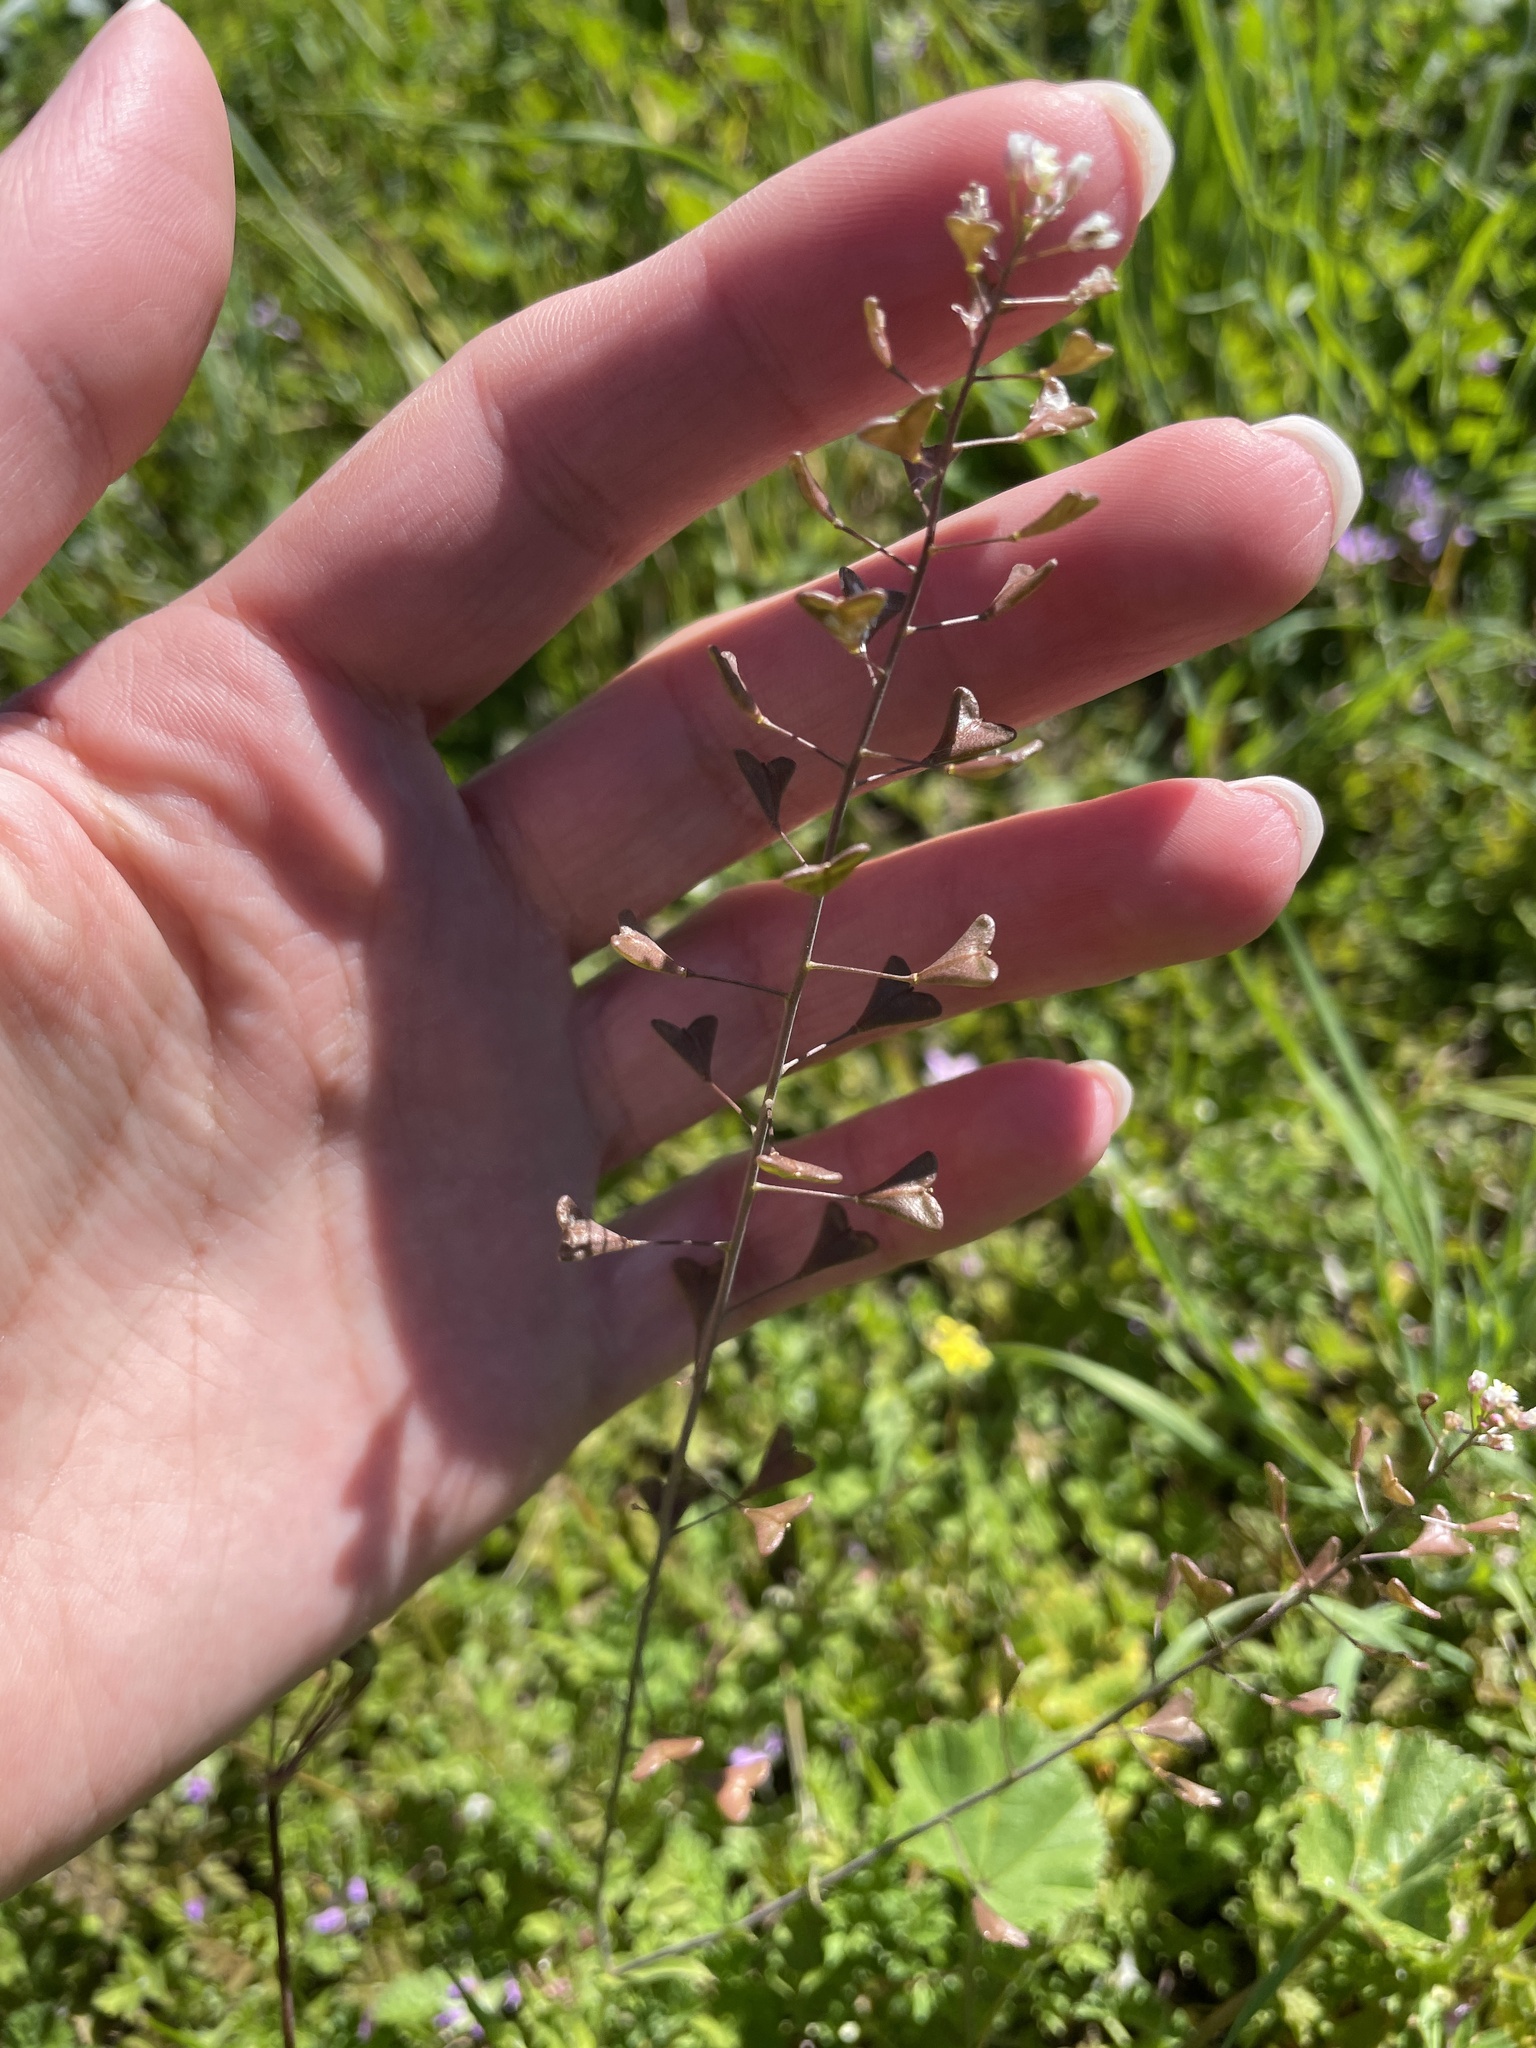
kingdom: Plantae
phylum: Tracheophyta
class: Magnoliopsida
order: Brassicales
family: Brassicaceae
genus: Capsella
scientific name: Capsella bursa-pastoris
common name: Shepherd's purse
